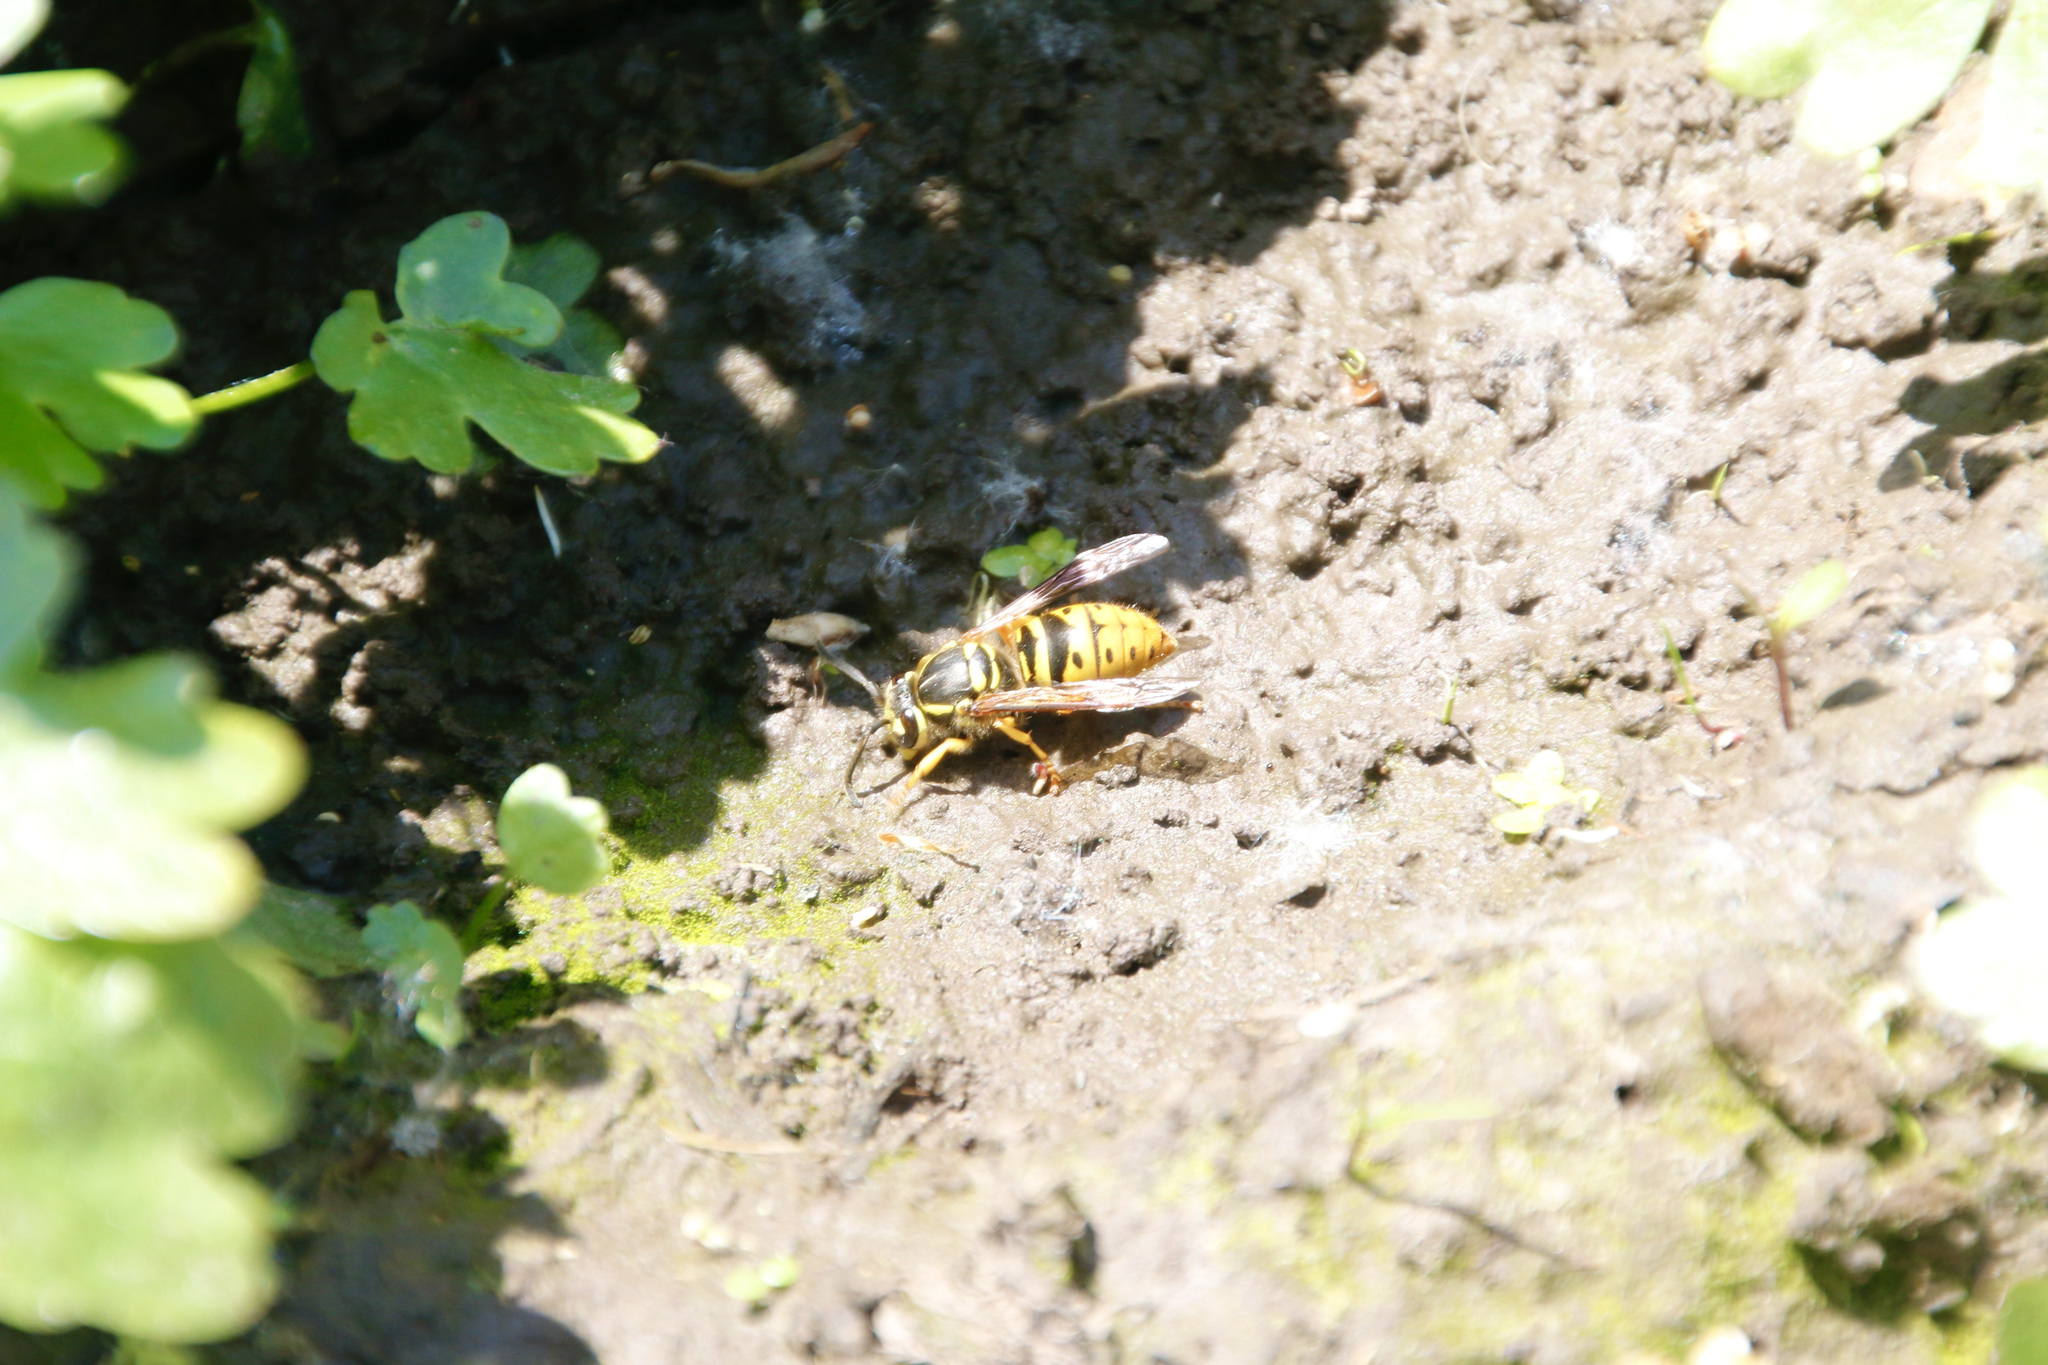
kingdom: Animalia
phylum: Arthropoda
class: Insecta
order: Hymenoptera
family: Vespidae
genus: Vespula
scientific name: Vespula maculifrons
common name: Eastern yellowjacket
